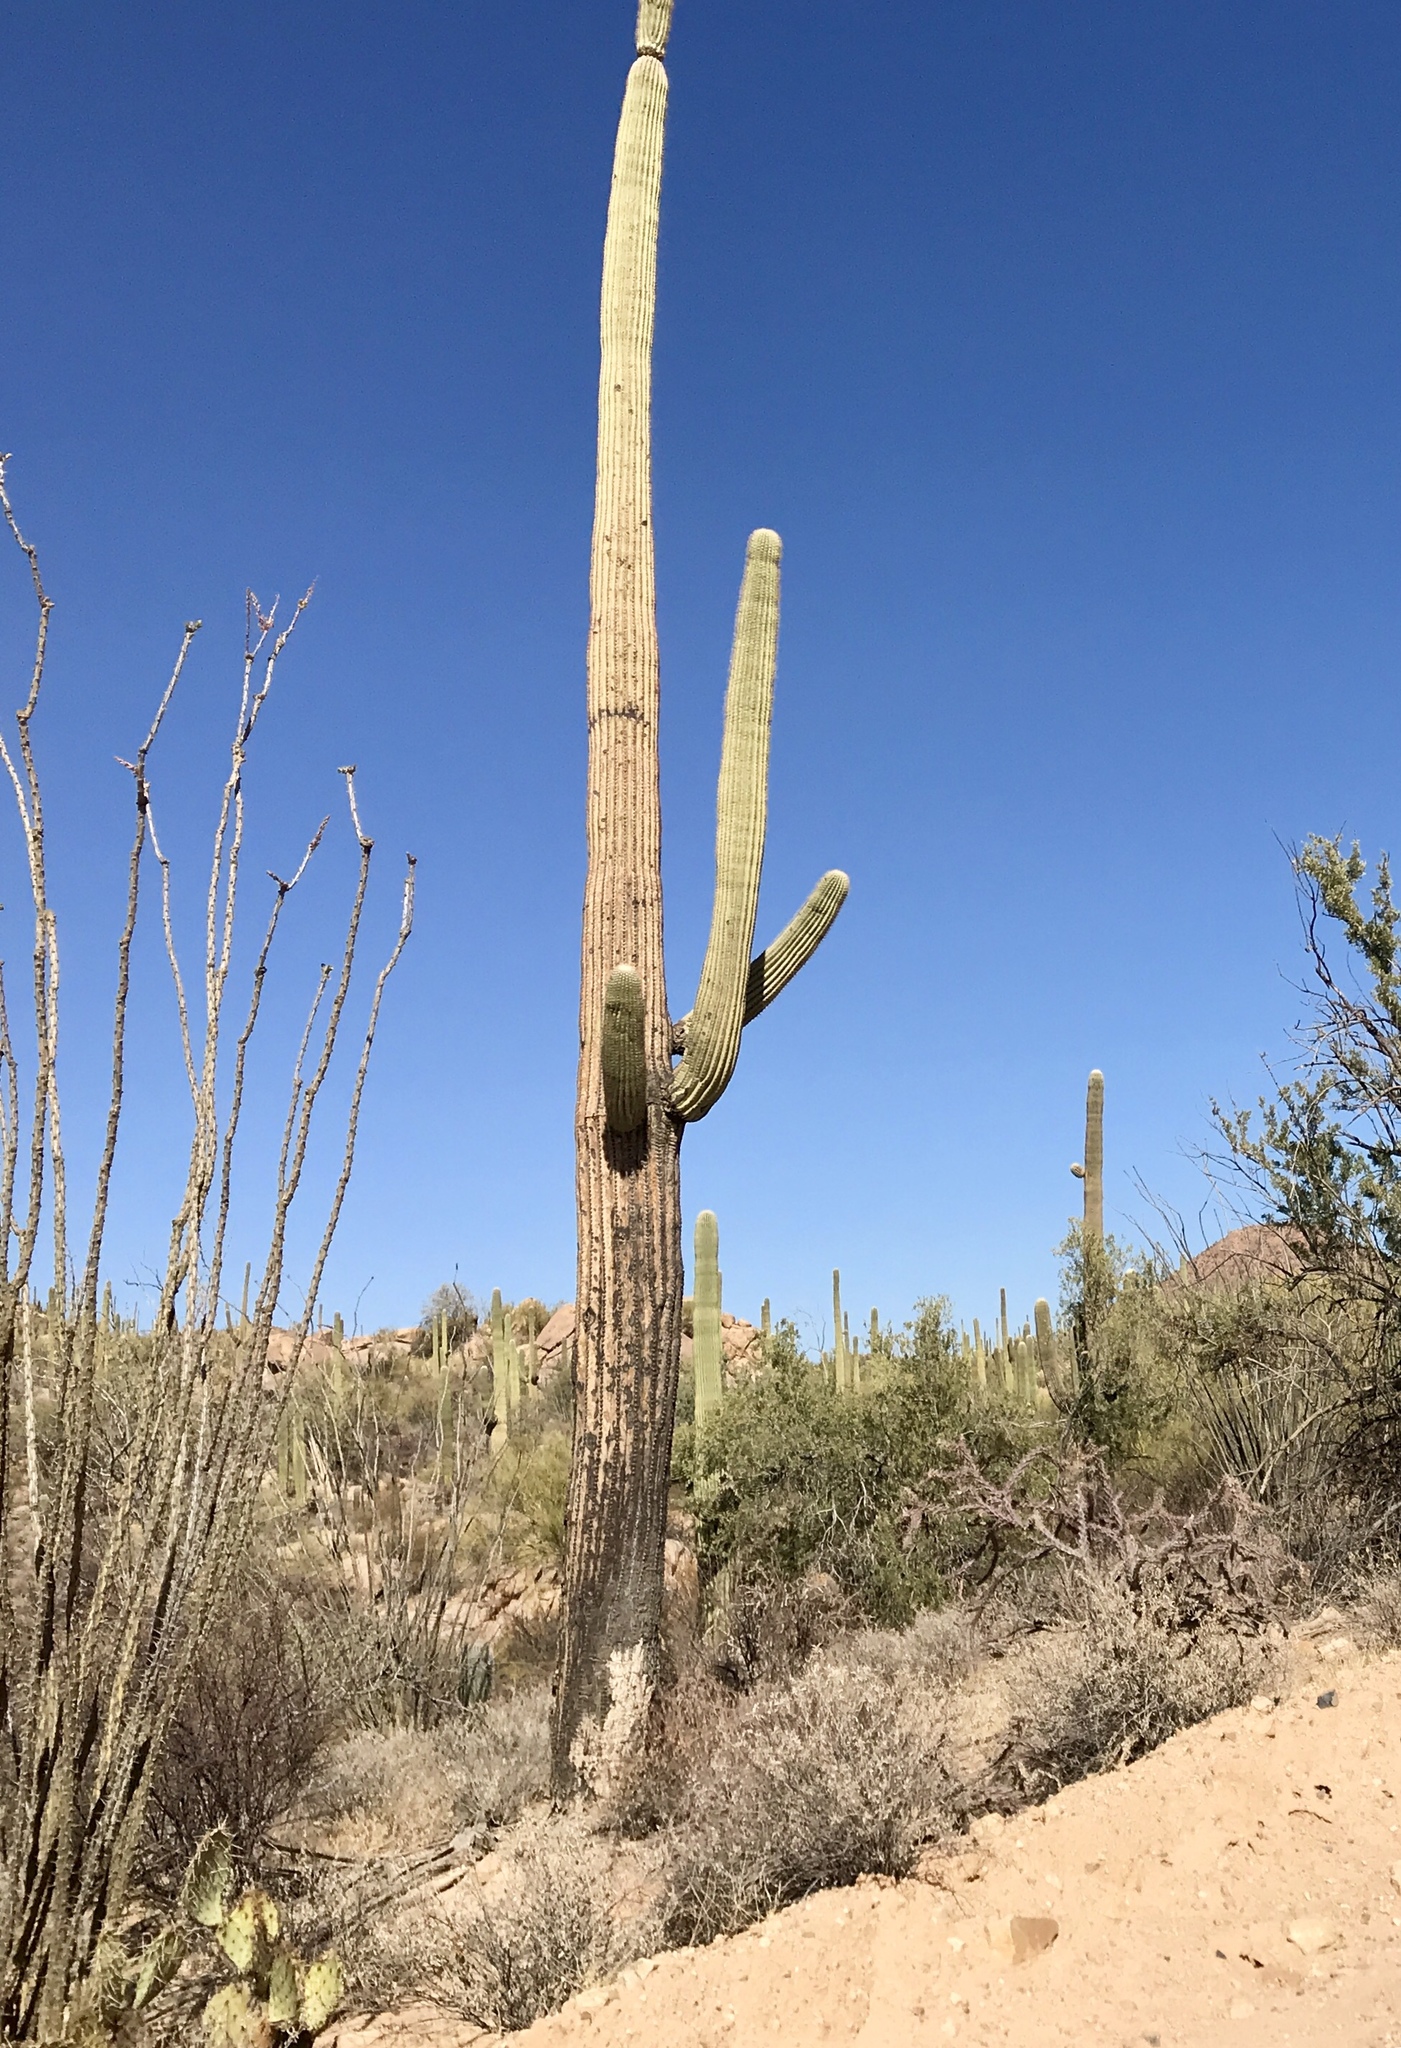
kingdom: Plantae
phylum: Tracheophyta
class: Magnoliopsida
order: Caryophyllales
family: Cactaceae
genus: Carnegiea
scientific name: Carnegiea gigantea
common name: Saguaro
